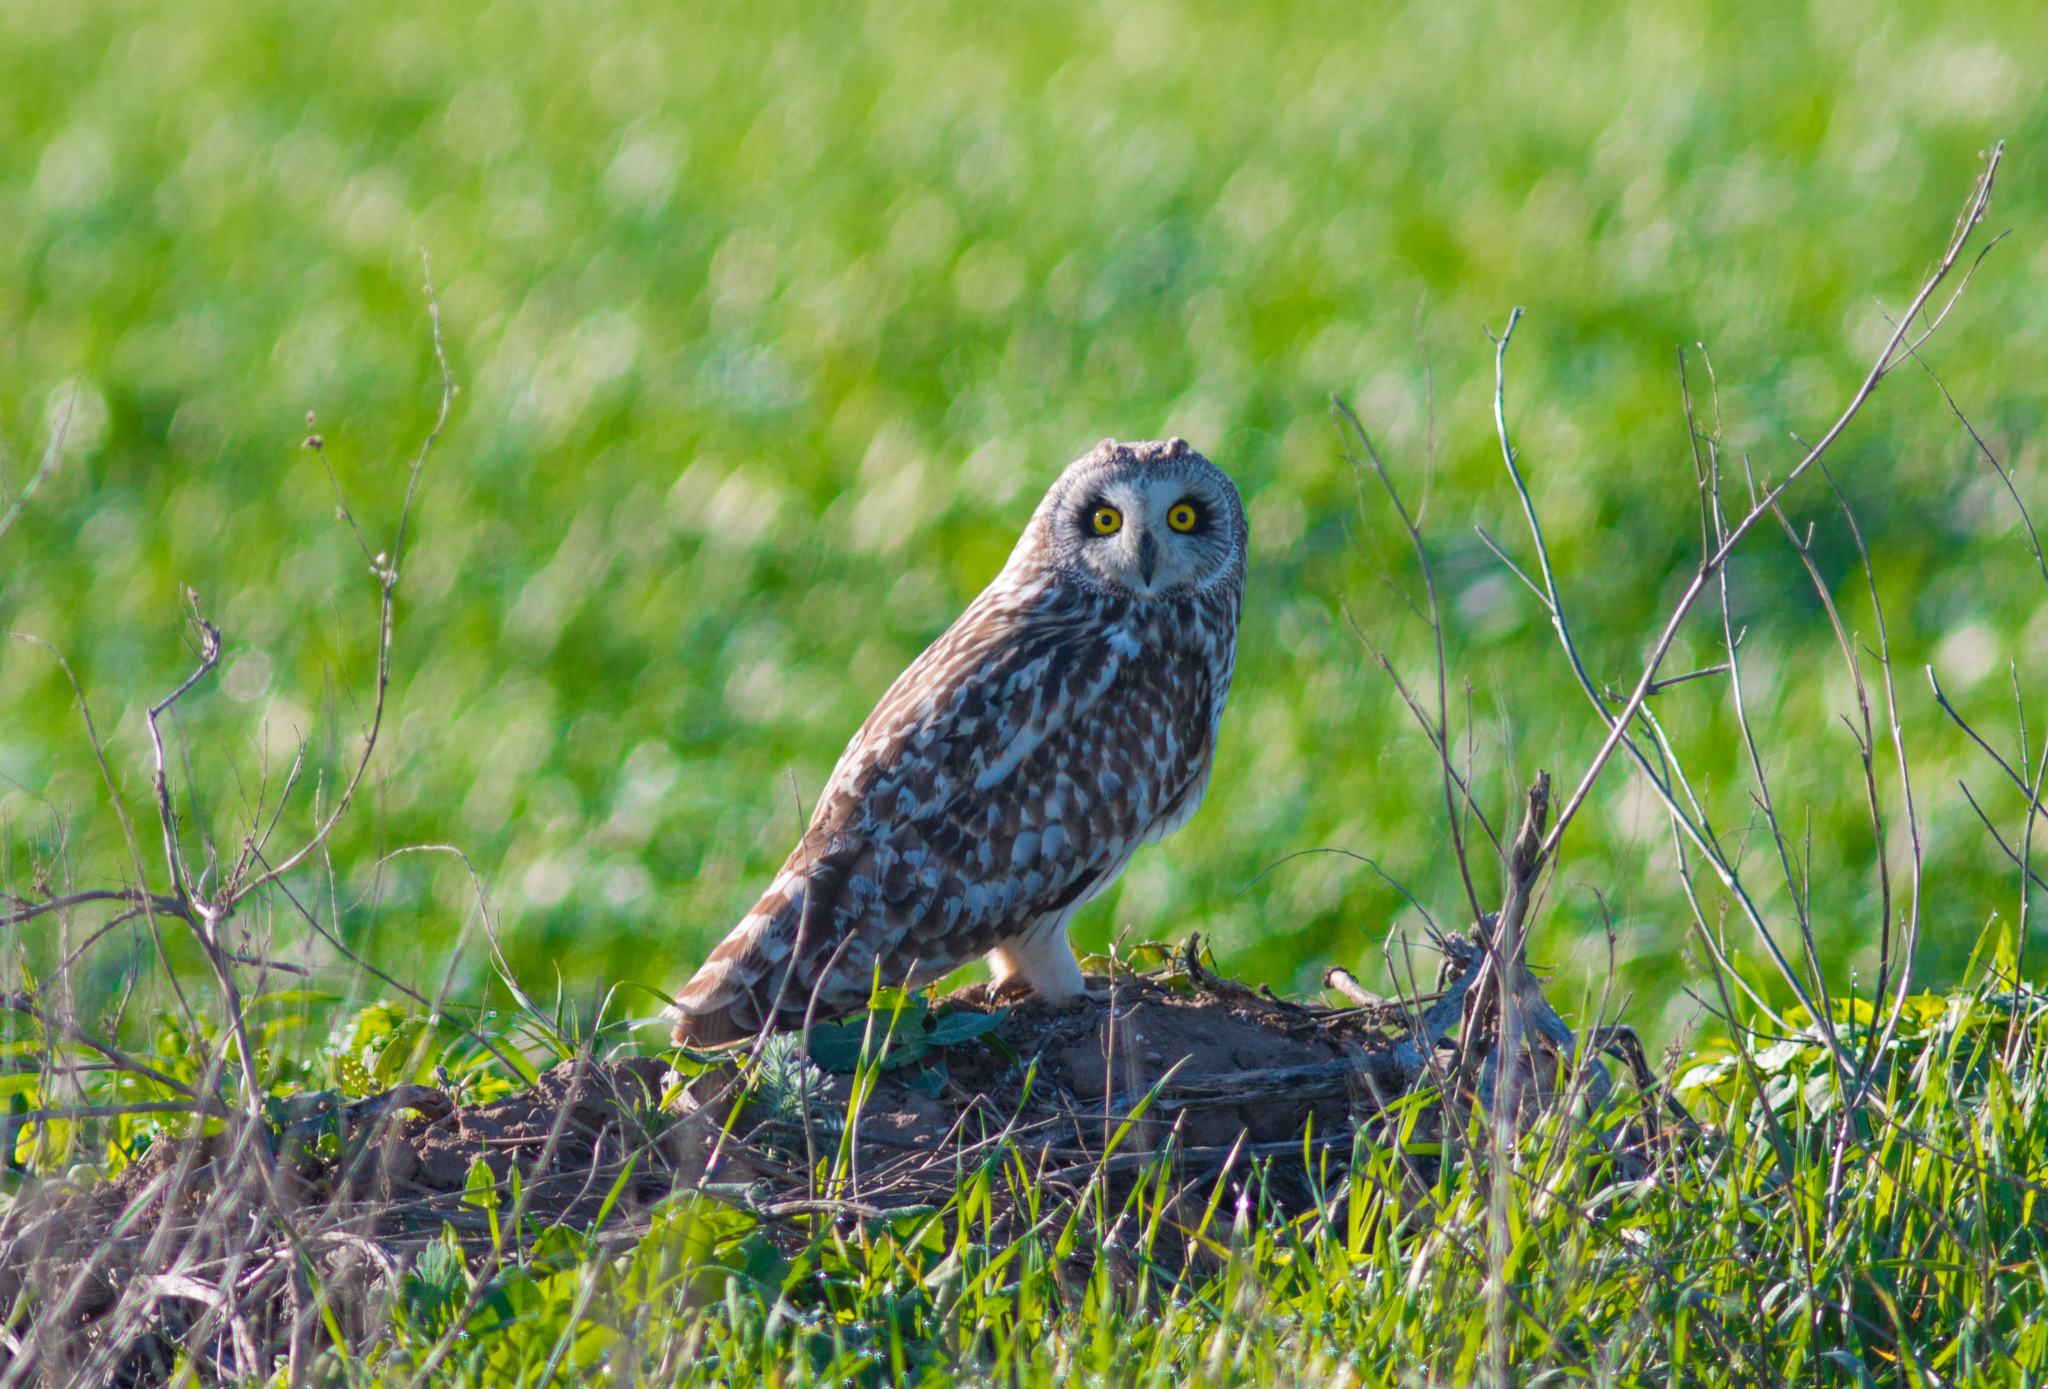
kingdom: Animalia
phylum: Chordata
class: Aves
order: Strigiformes
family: Strigidae
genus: Asio
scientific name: Asio flammeus
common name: Short-eared owl
